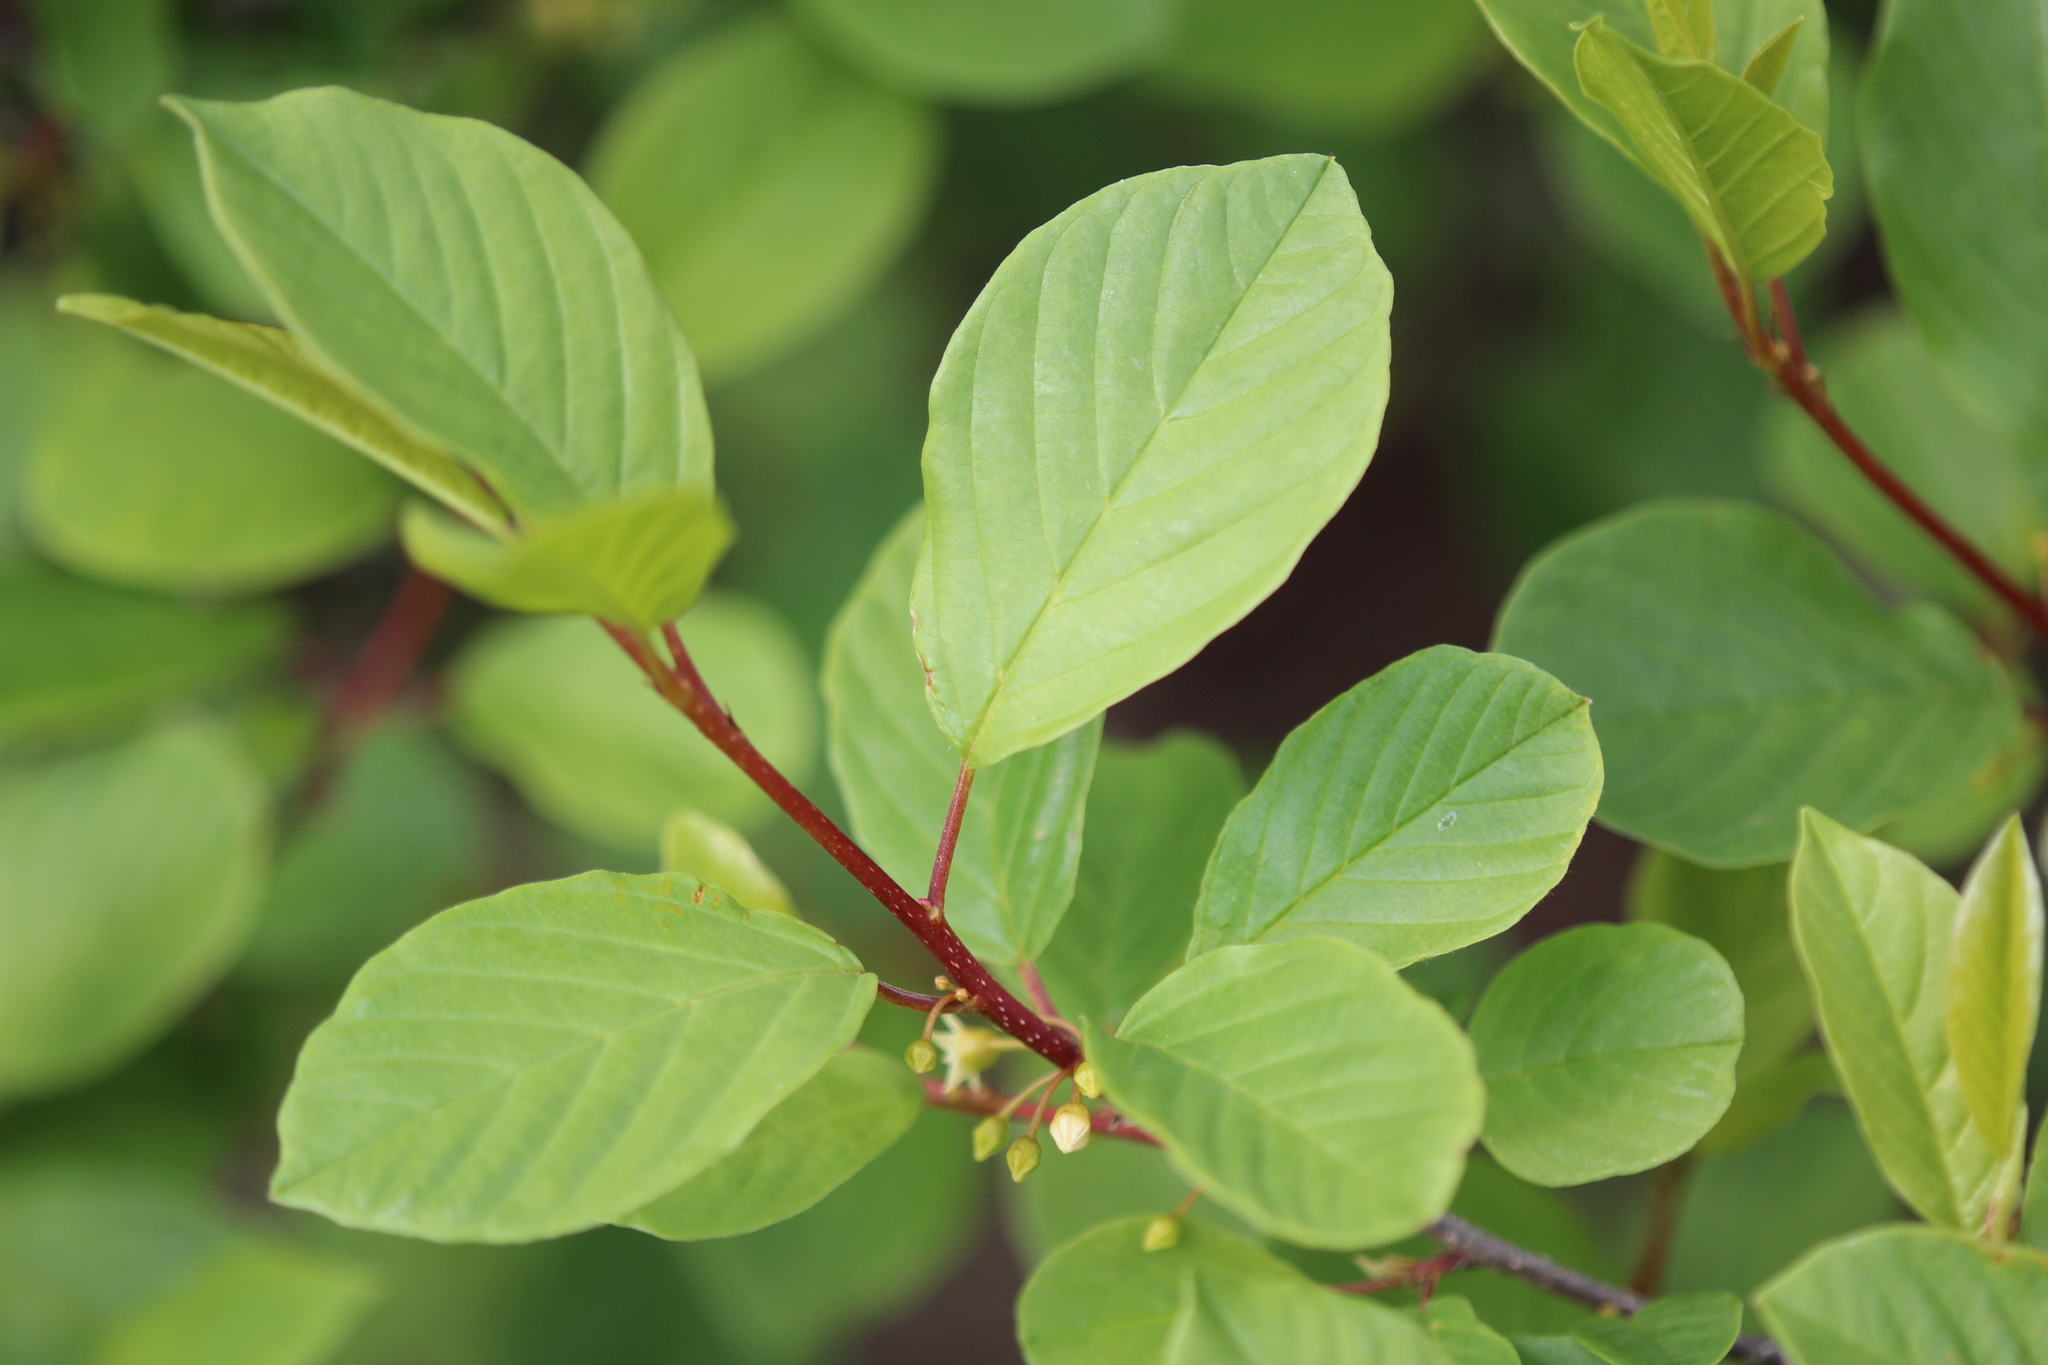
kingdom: Plantae
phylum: Tracheophyta
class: Magnoliopsida
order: Rosales
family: Rhamnaceae
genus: Frangula
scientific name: Frangula alnus
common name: Alder buckthorn
